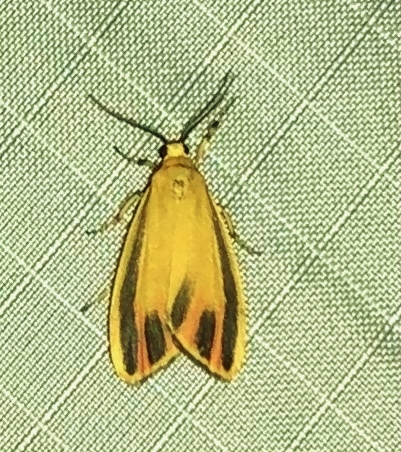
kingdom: Animalia
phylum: Arthropoda
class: Insecta
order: Lepidoptera
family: Erebidae
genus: Hypoprepia
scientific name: Hypoprepia fucosa
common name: Painted lichen moth
